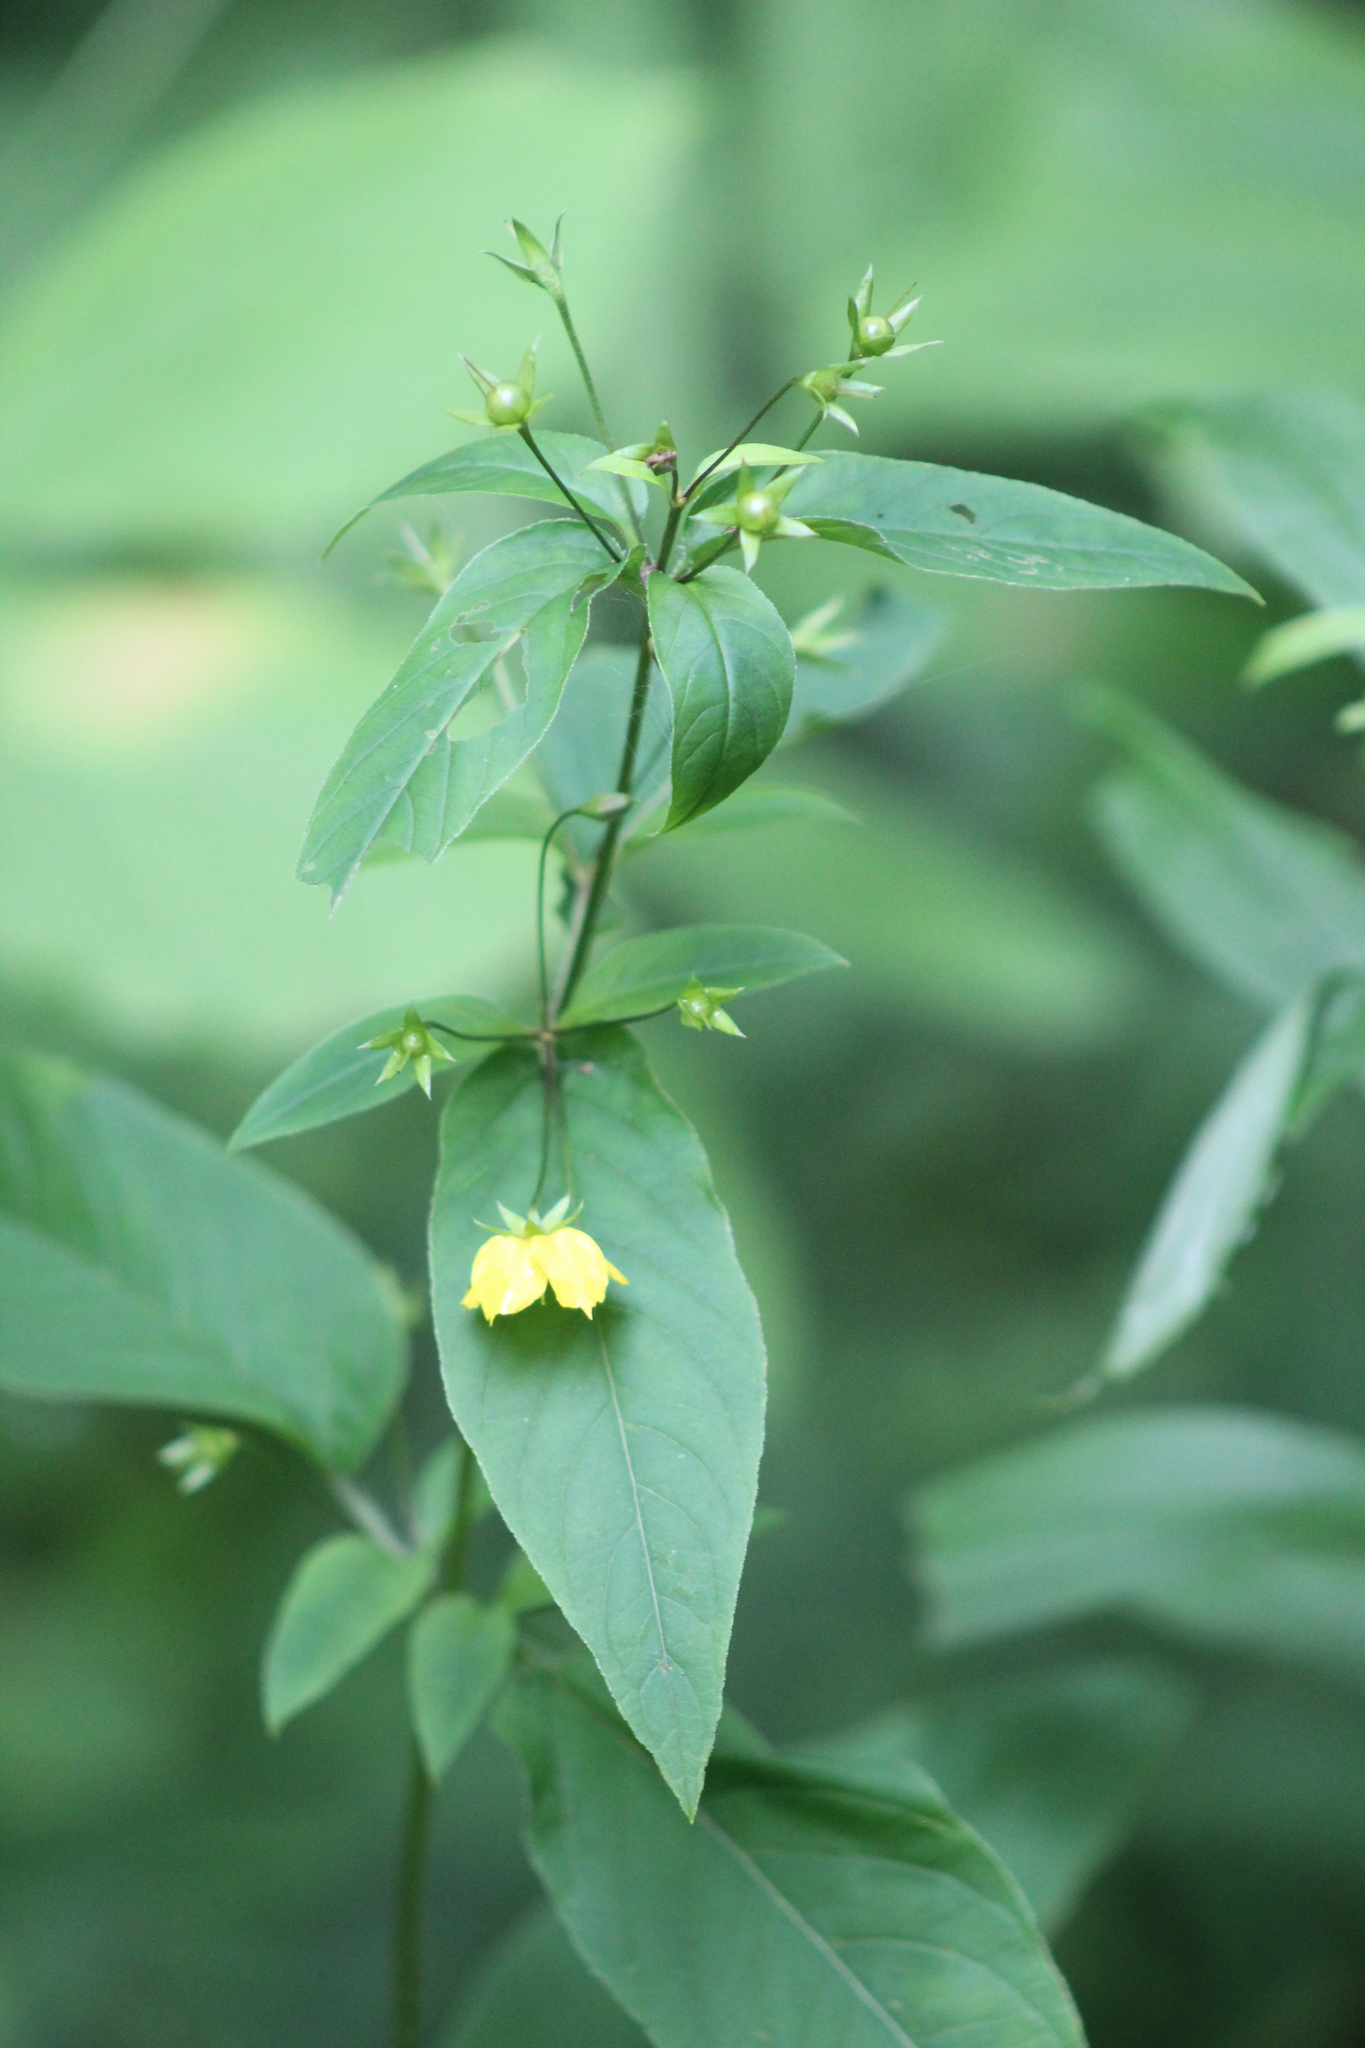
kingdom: Plantae
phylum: Tracheophyta
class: Magnoliopsida
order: Ericales
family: Primulaceae
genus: Lysimachia
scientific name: Lysimachia ciliata
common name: Fringed loosestrife
